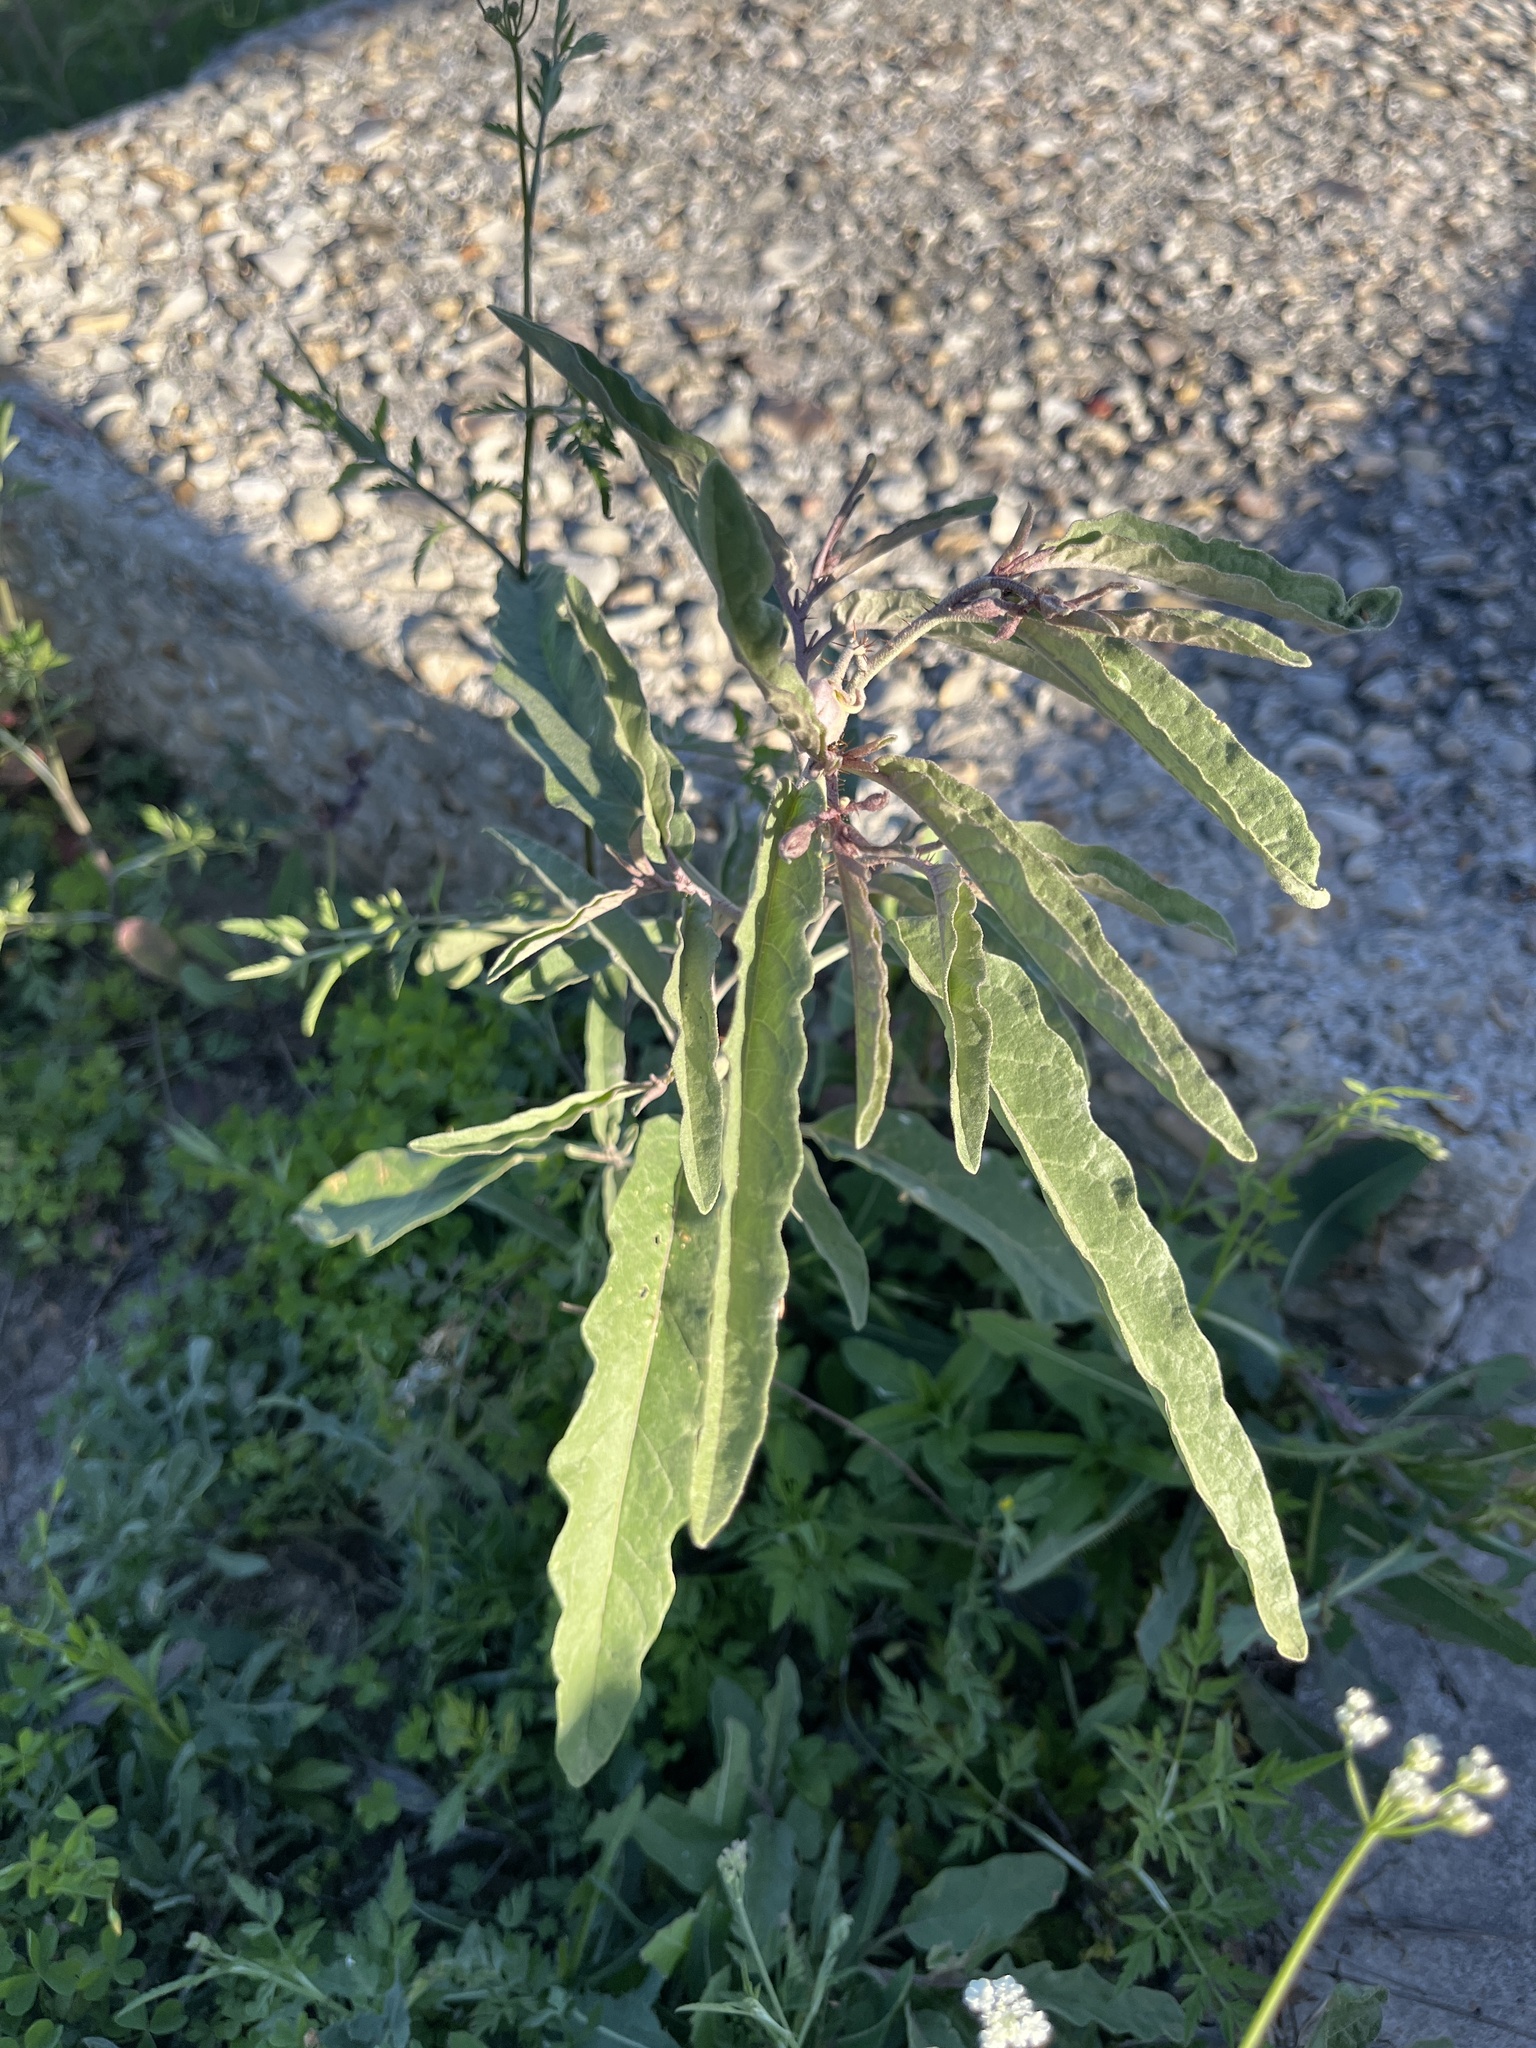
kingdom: Plantae
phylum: Tracheophyta
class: Magnoliopsida
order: Solanales
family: Solanaceae
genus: Solanum
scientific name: Solanum elaeagnifolium
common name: Silverleaf nightshade
